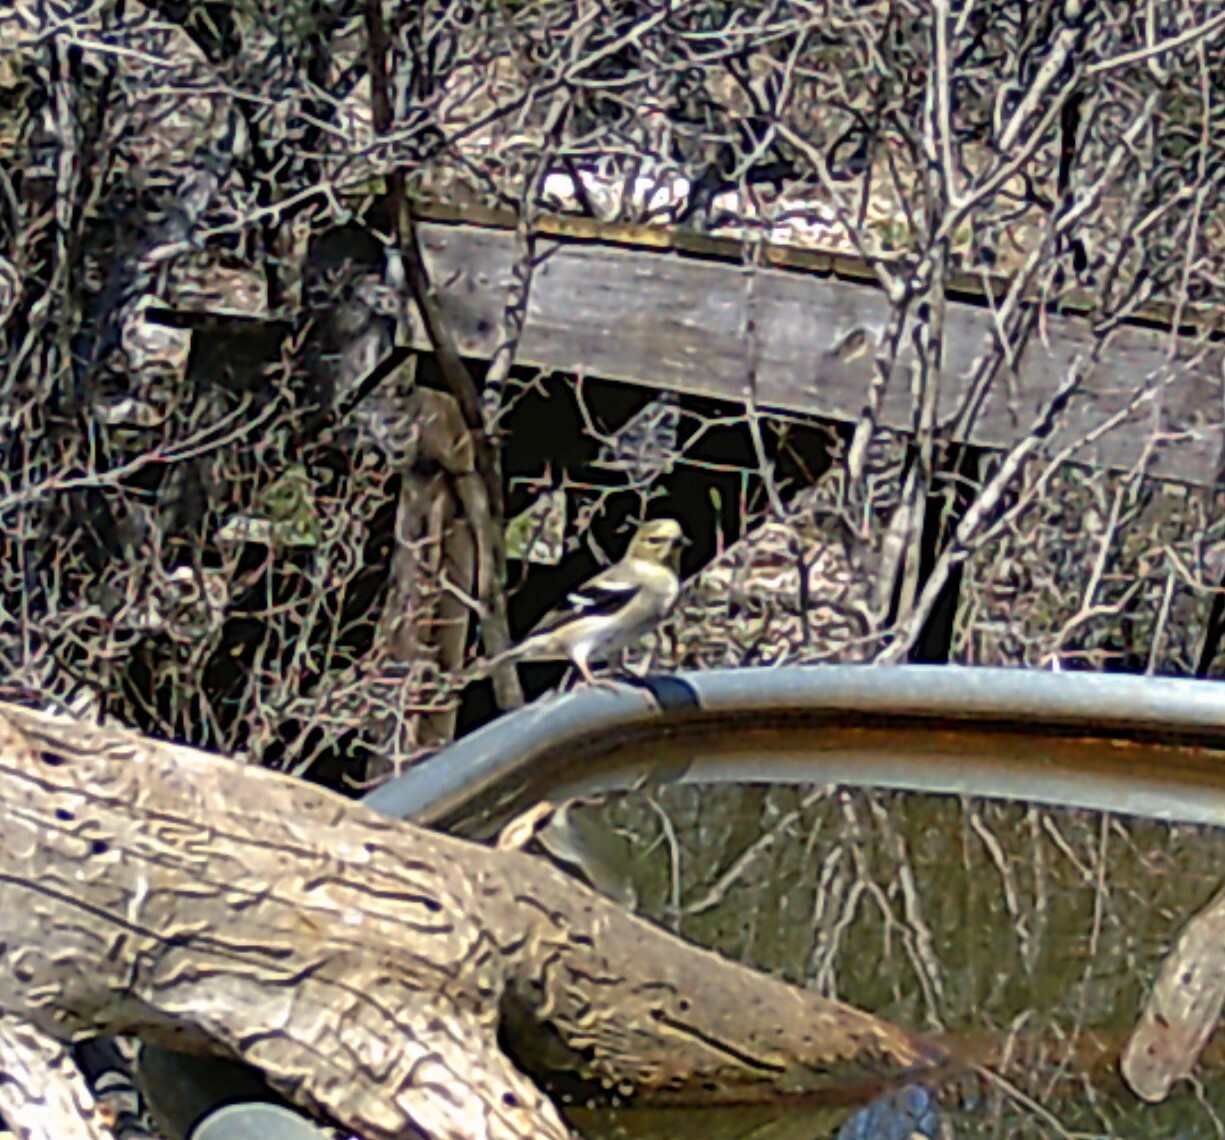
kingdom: Animalia
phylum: Chordata
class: Aves
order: Passeriformes
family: Fringillidae
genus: Spinus
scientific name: Spinus tristis
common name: American goldfinch
